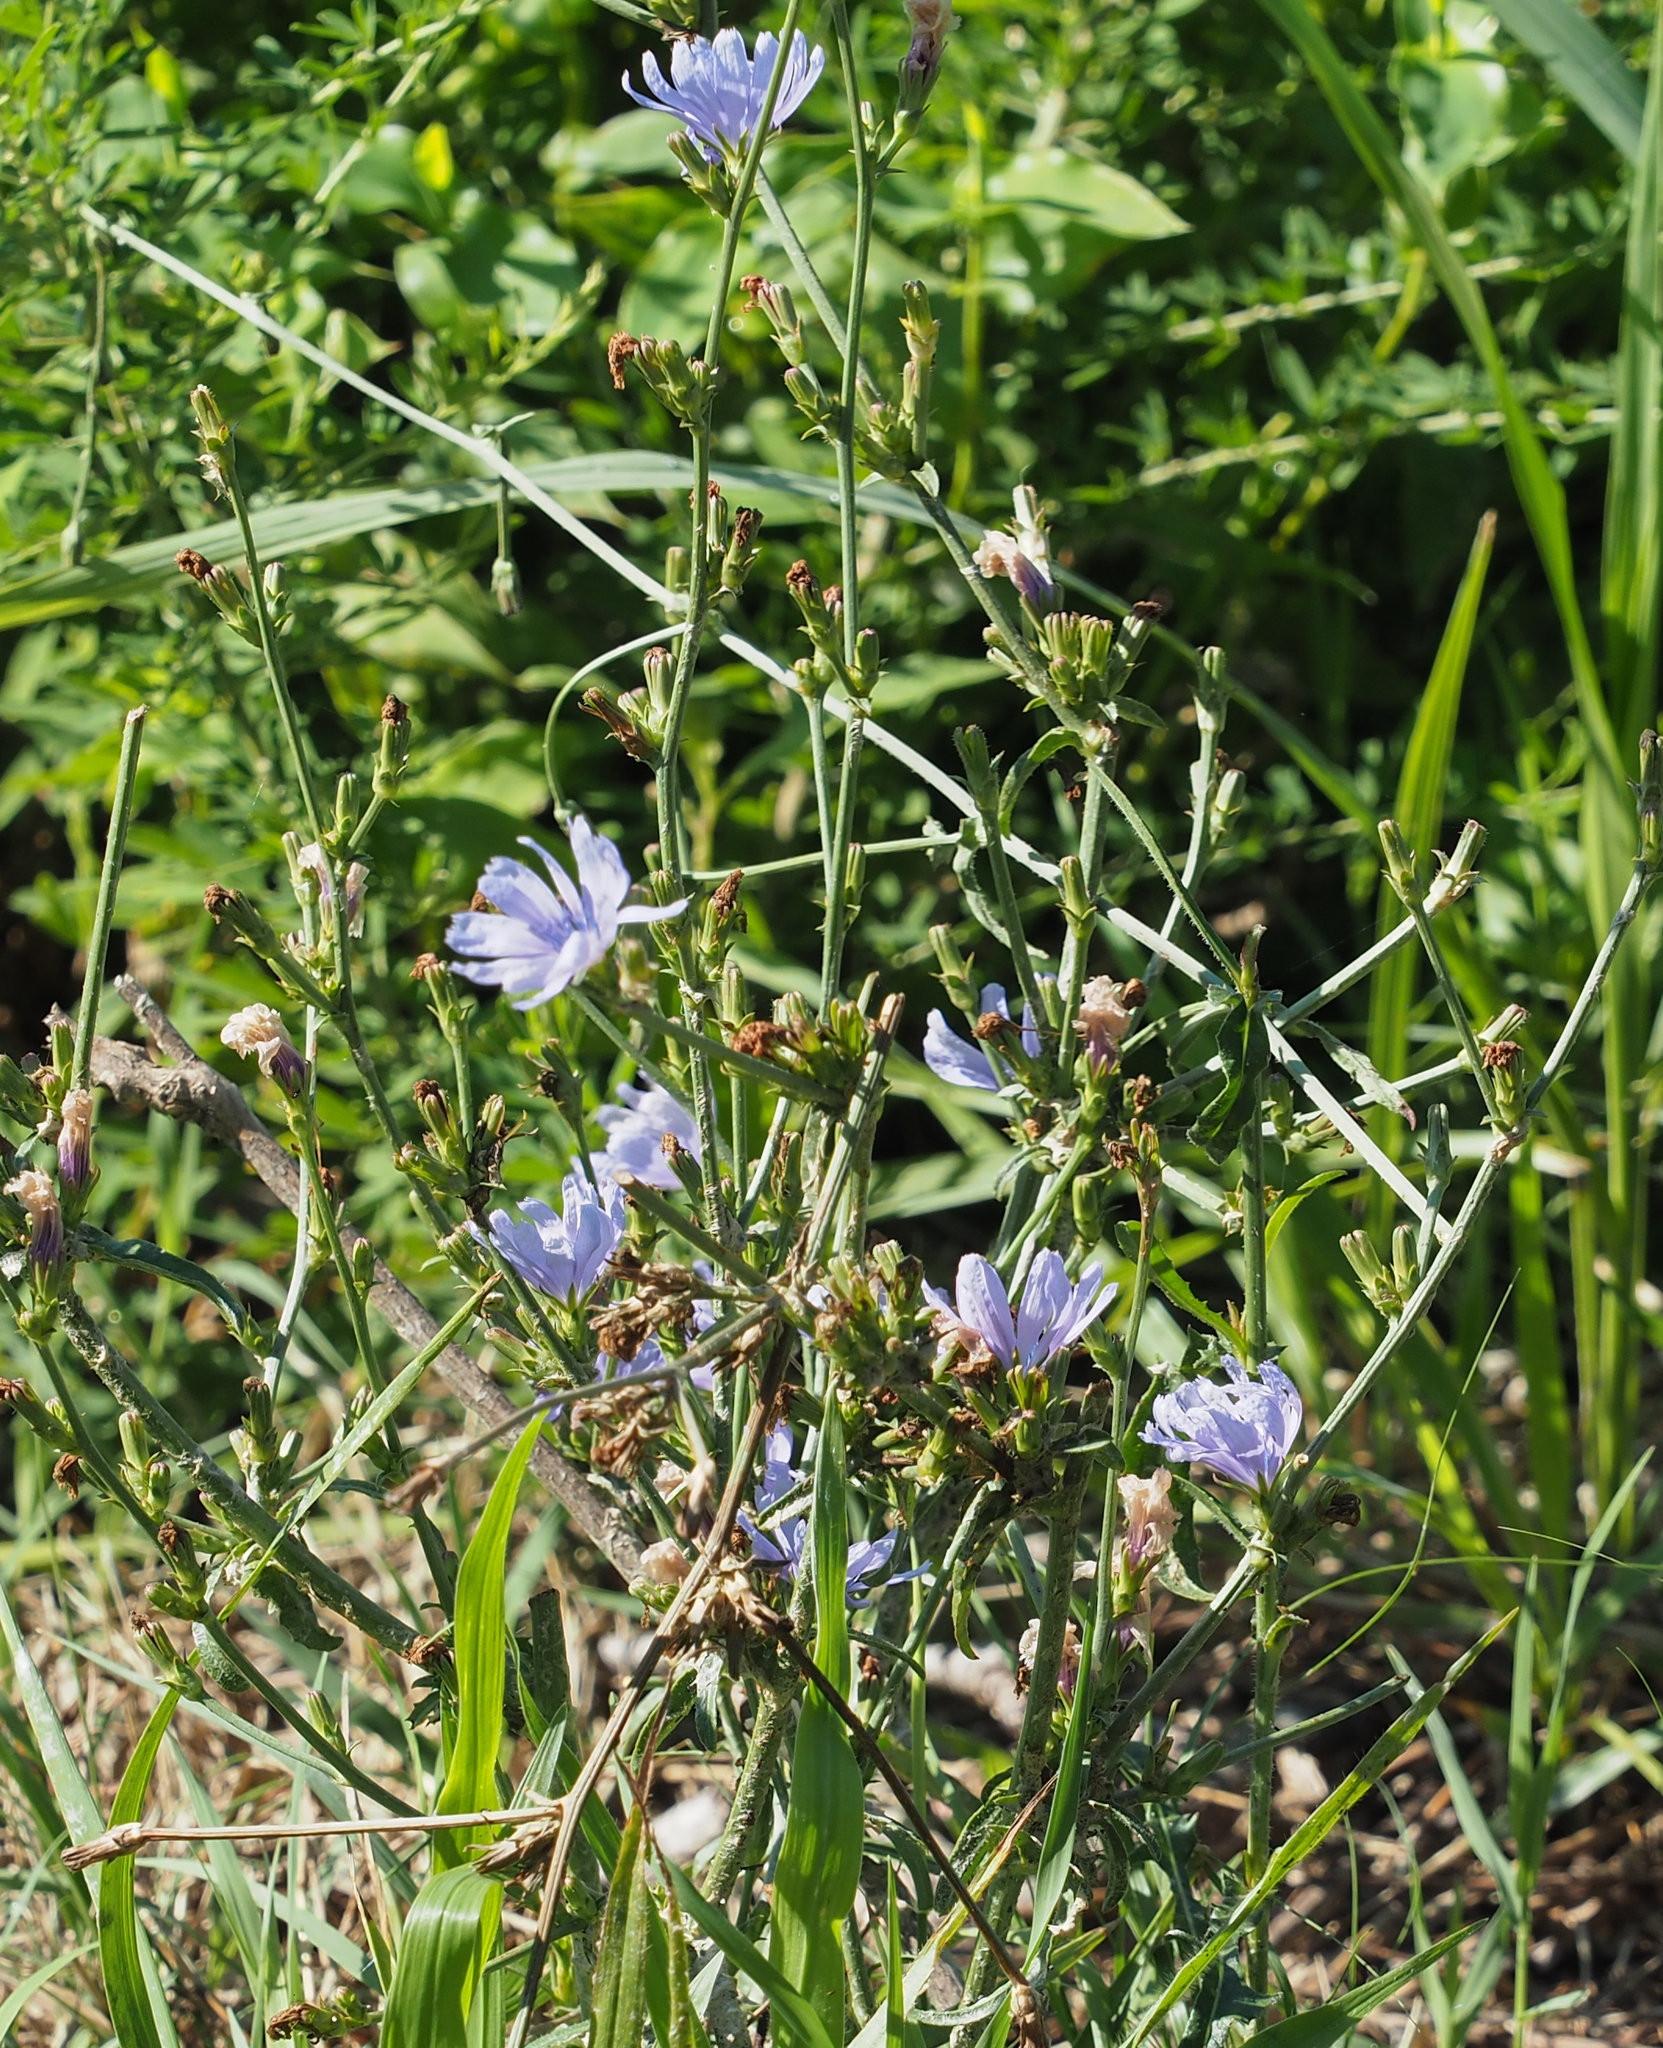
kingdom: Plantae
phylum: Tracheophyta
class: Magnoliopsida
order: Asterales
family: Asteraceae
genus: Cichorium
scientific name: Cichorium intybus
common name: Chicory
